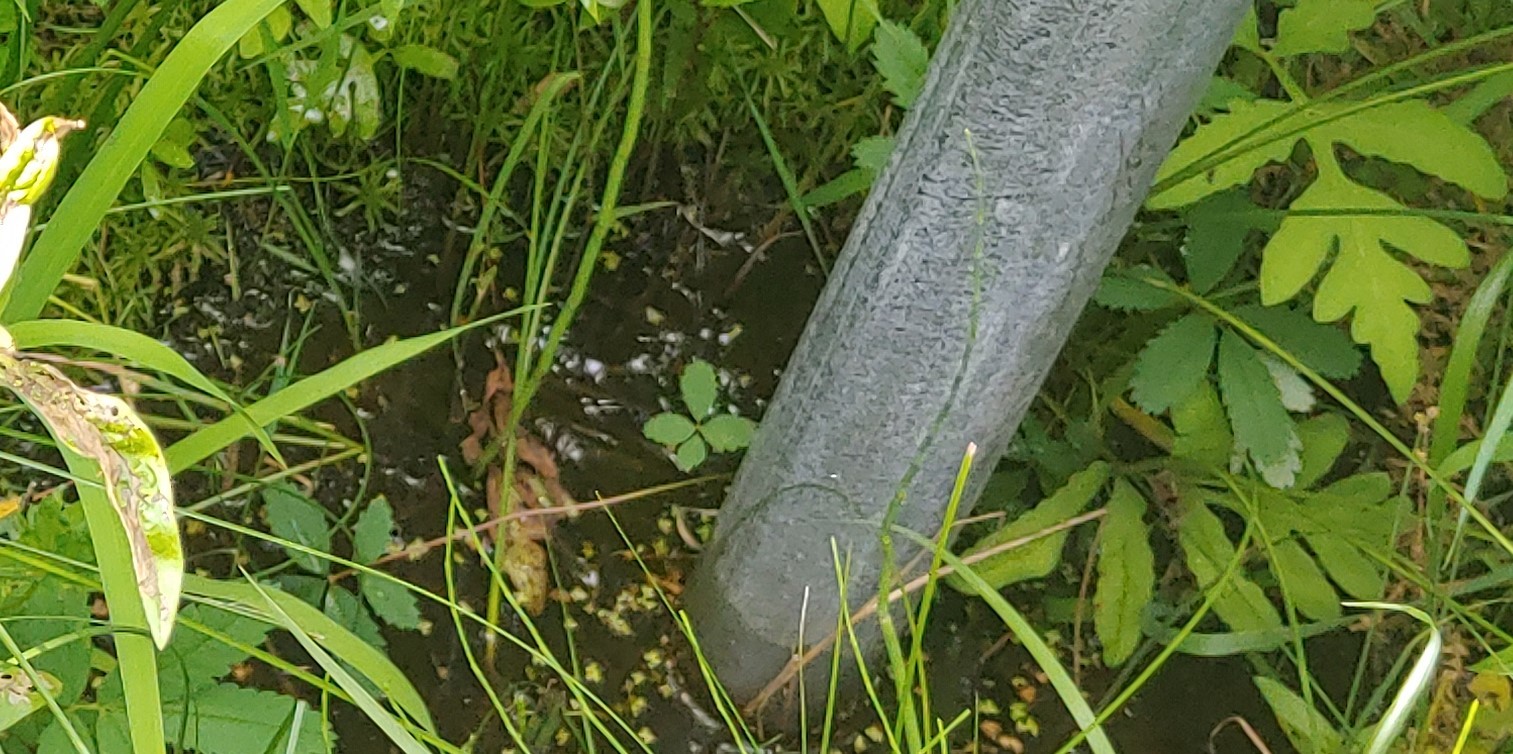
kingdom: Plantae
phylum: Tracheophyta
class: Magnoliopsida
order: Rosales
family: Rosaceae
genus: Comarum
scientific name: Comarum palustre
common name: Marsh cinquefoil
